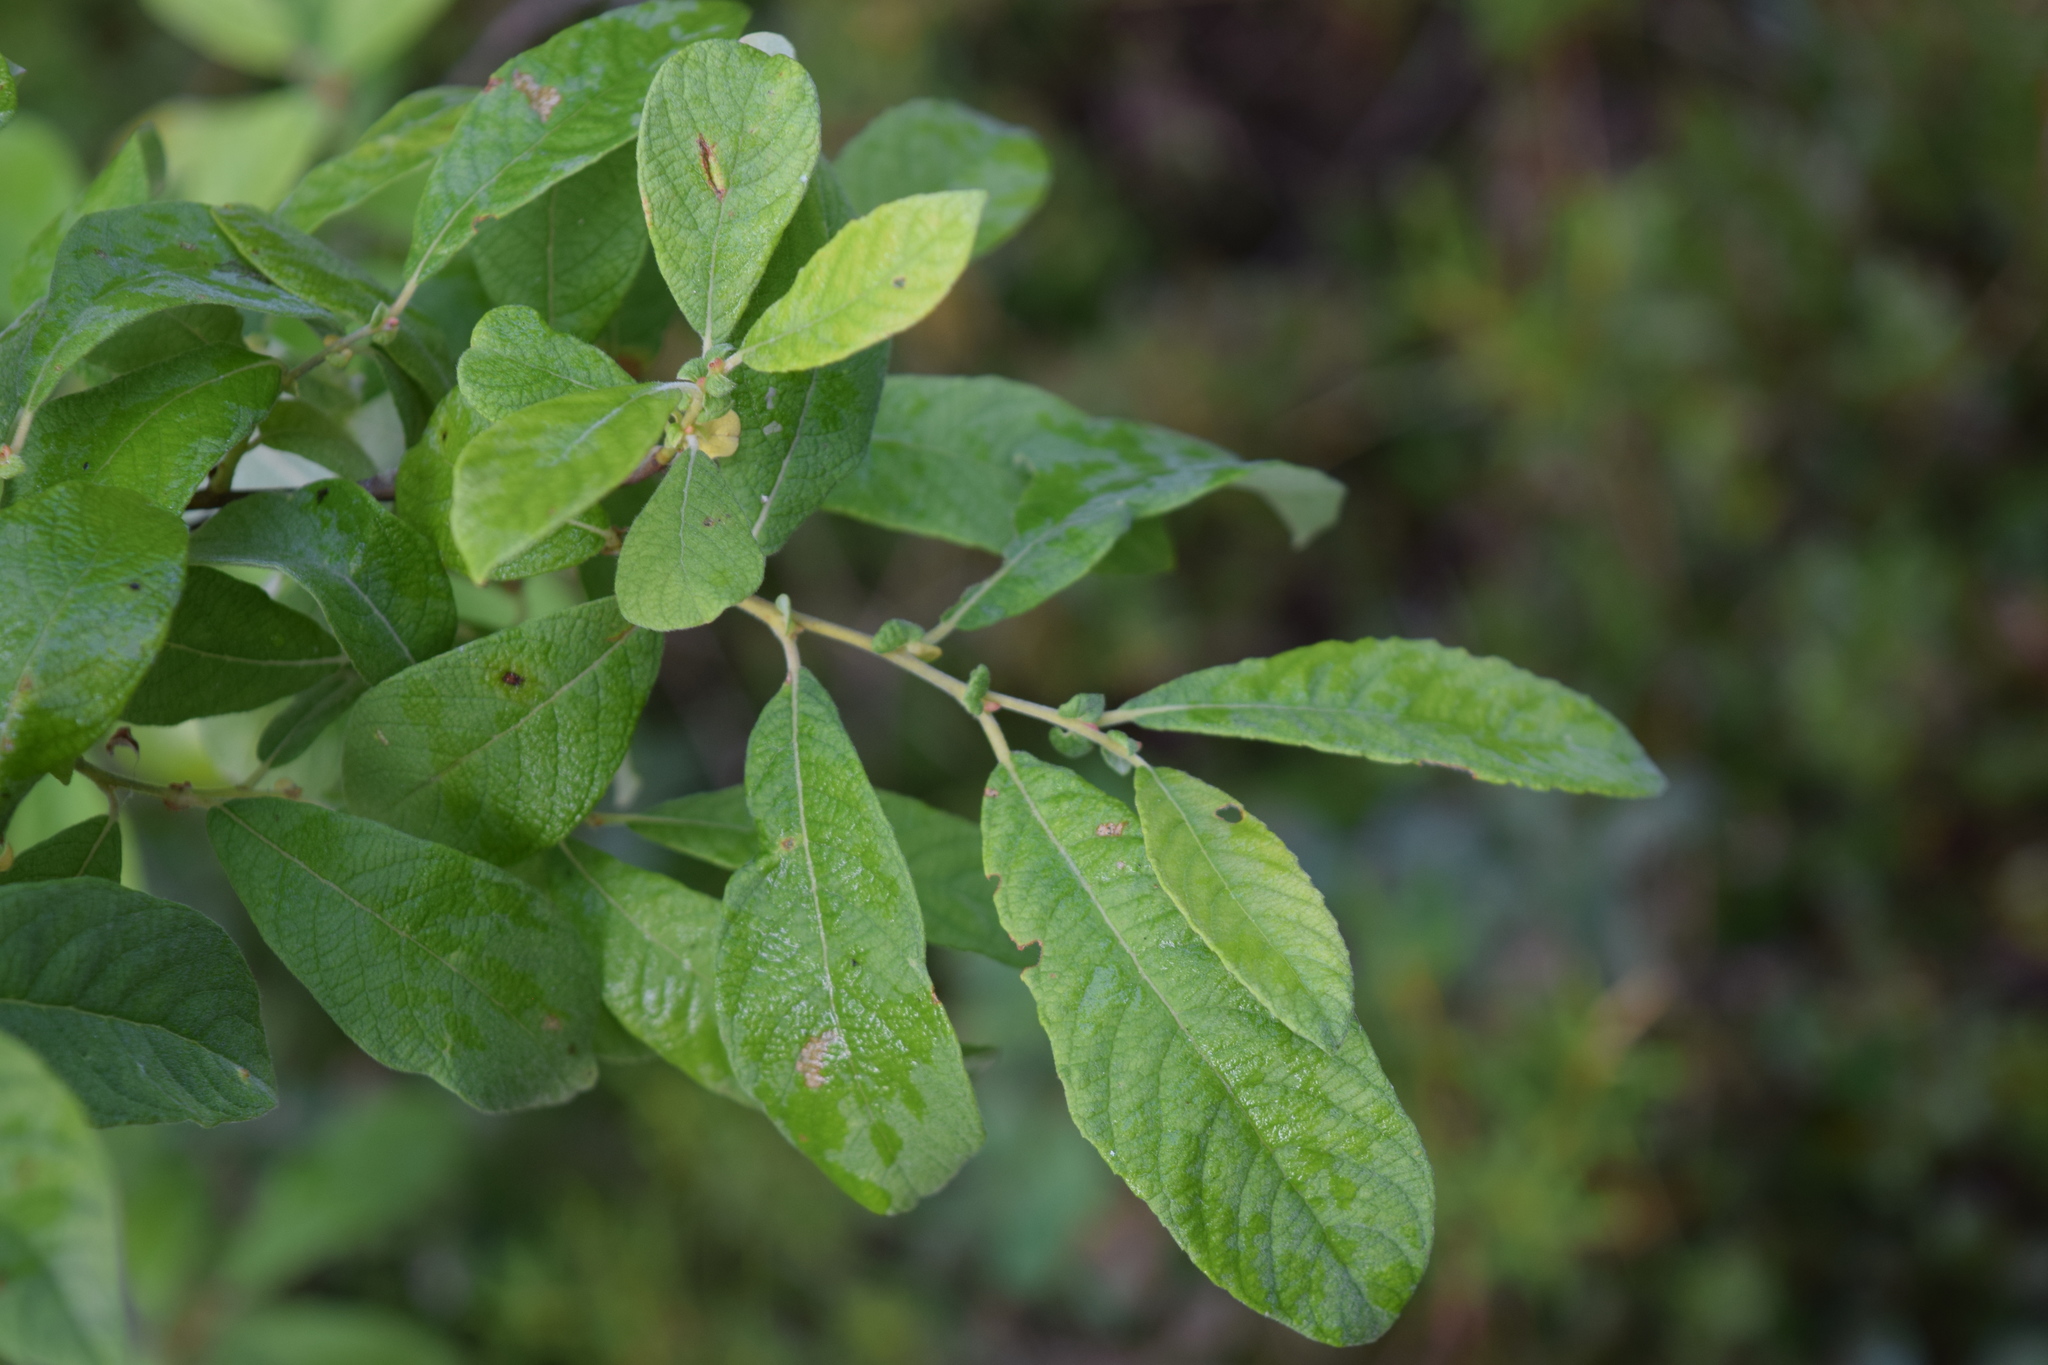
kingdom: Plantae
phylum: Tracheophyta
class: Magnoliopsida
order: Malpighiales
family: Salicaceae
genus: Salix
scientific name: Salix aurita
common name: Eared willow
